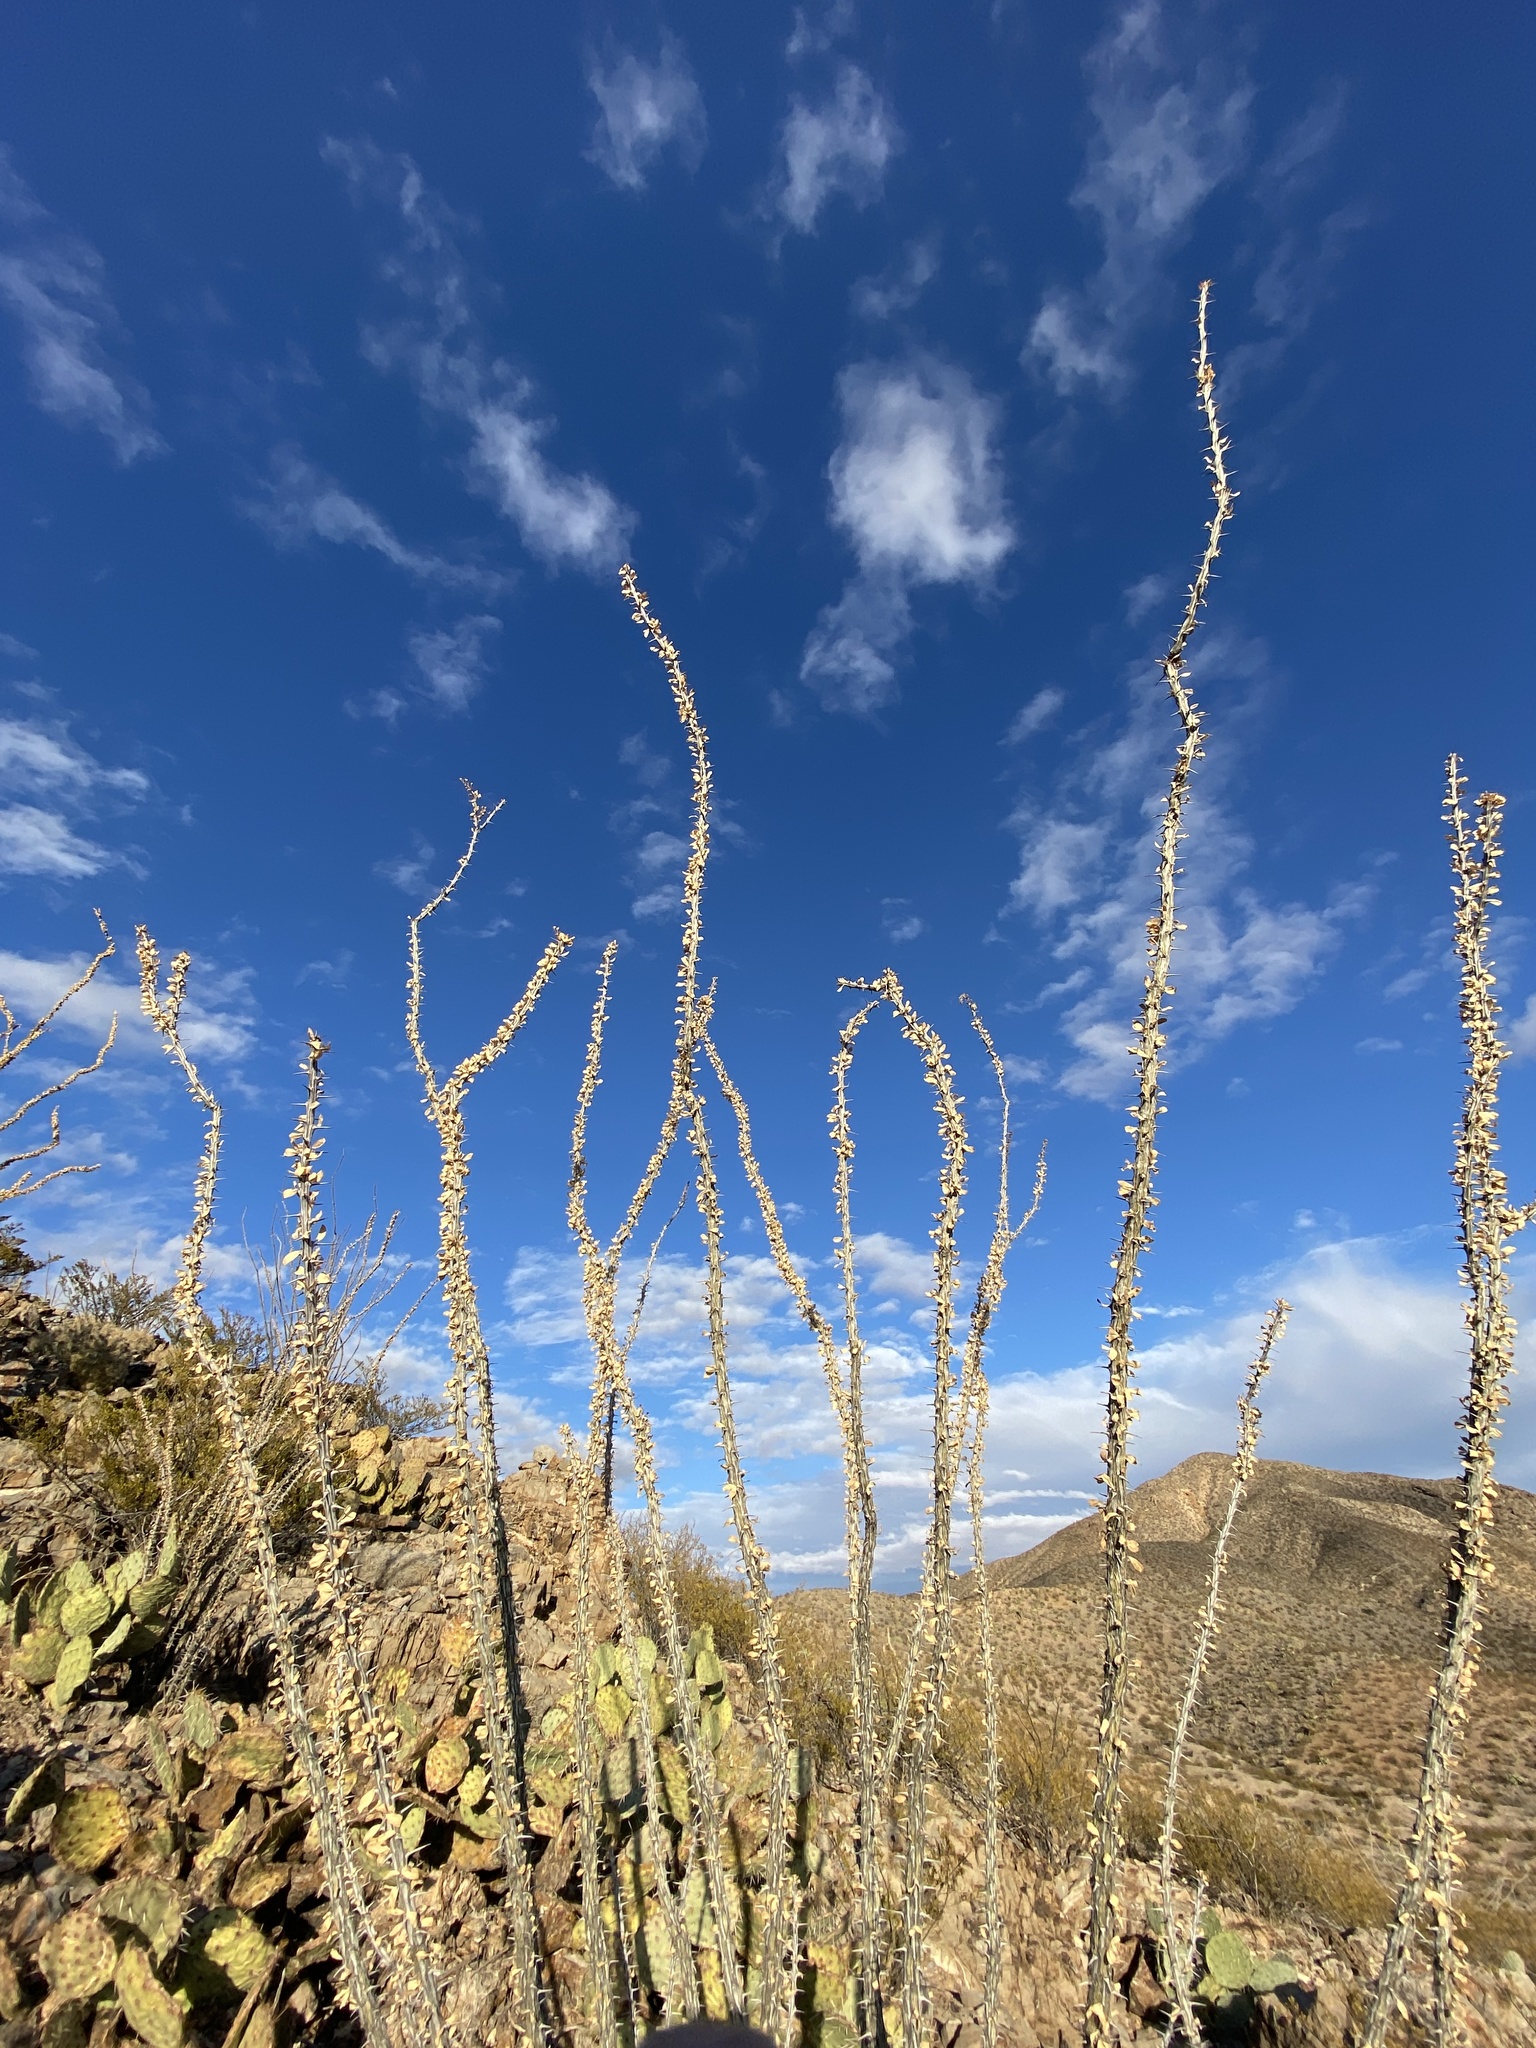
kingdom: Plantae
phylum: Tracheophyta
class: Magnoliopsida
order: Ericales
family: Fouquieriaceae
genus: Fouquieria
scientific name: Fouquieria splendens
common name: Vine-cactus
